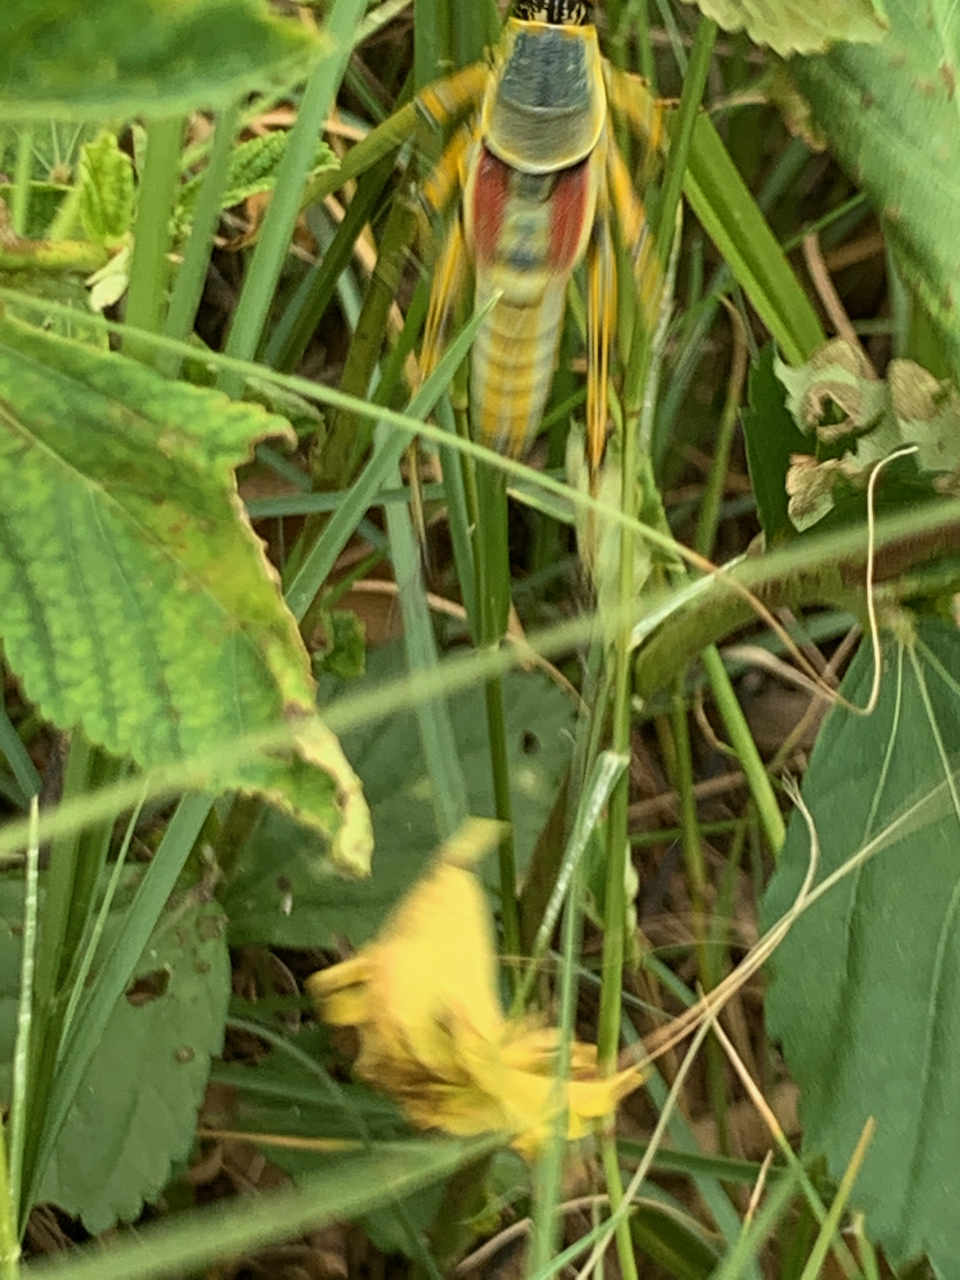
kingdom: Animalia
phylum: Arthropoda
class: Insecta
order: Orthoptera
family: Pyrgomorphidae
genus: Zonocerus
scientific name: Zonocerus elegans
